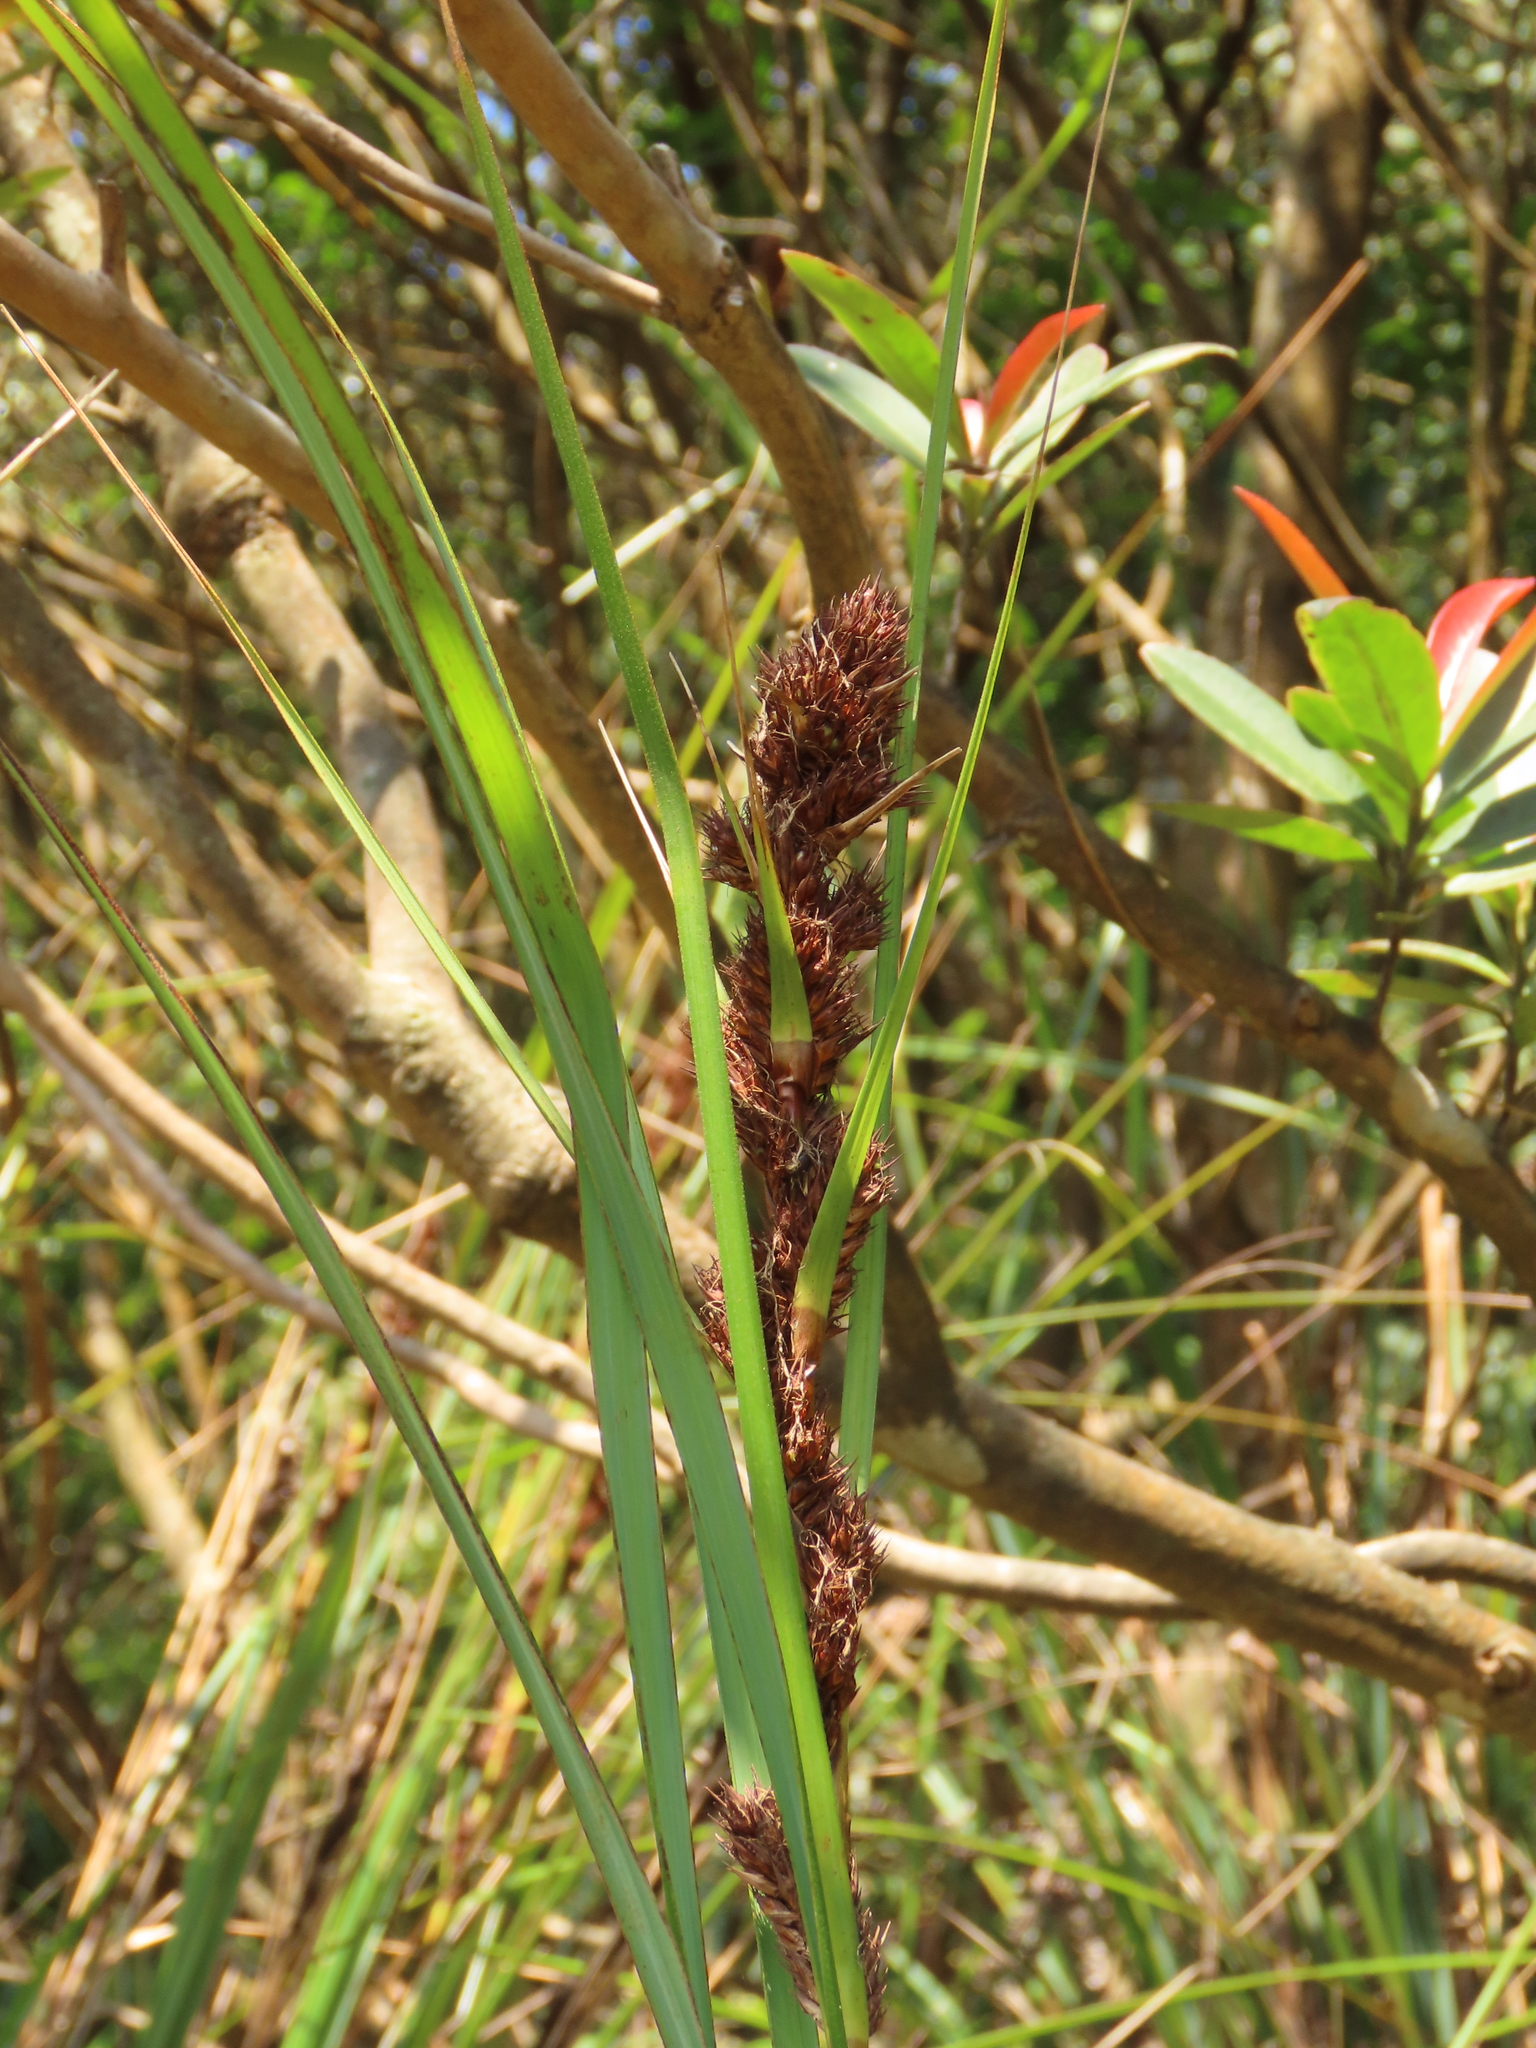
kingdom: Plantae
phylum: Tracheophyta
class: Liliopsida
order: Poales
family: Cyperaceae
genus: Gahnia
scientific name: Gahnia tristis
